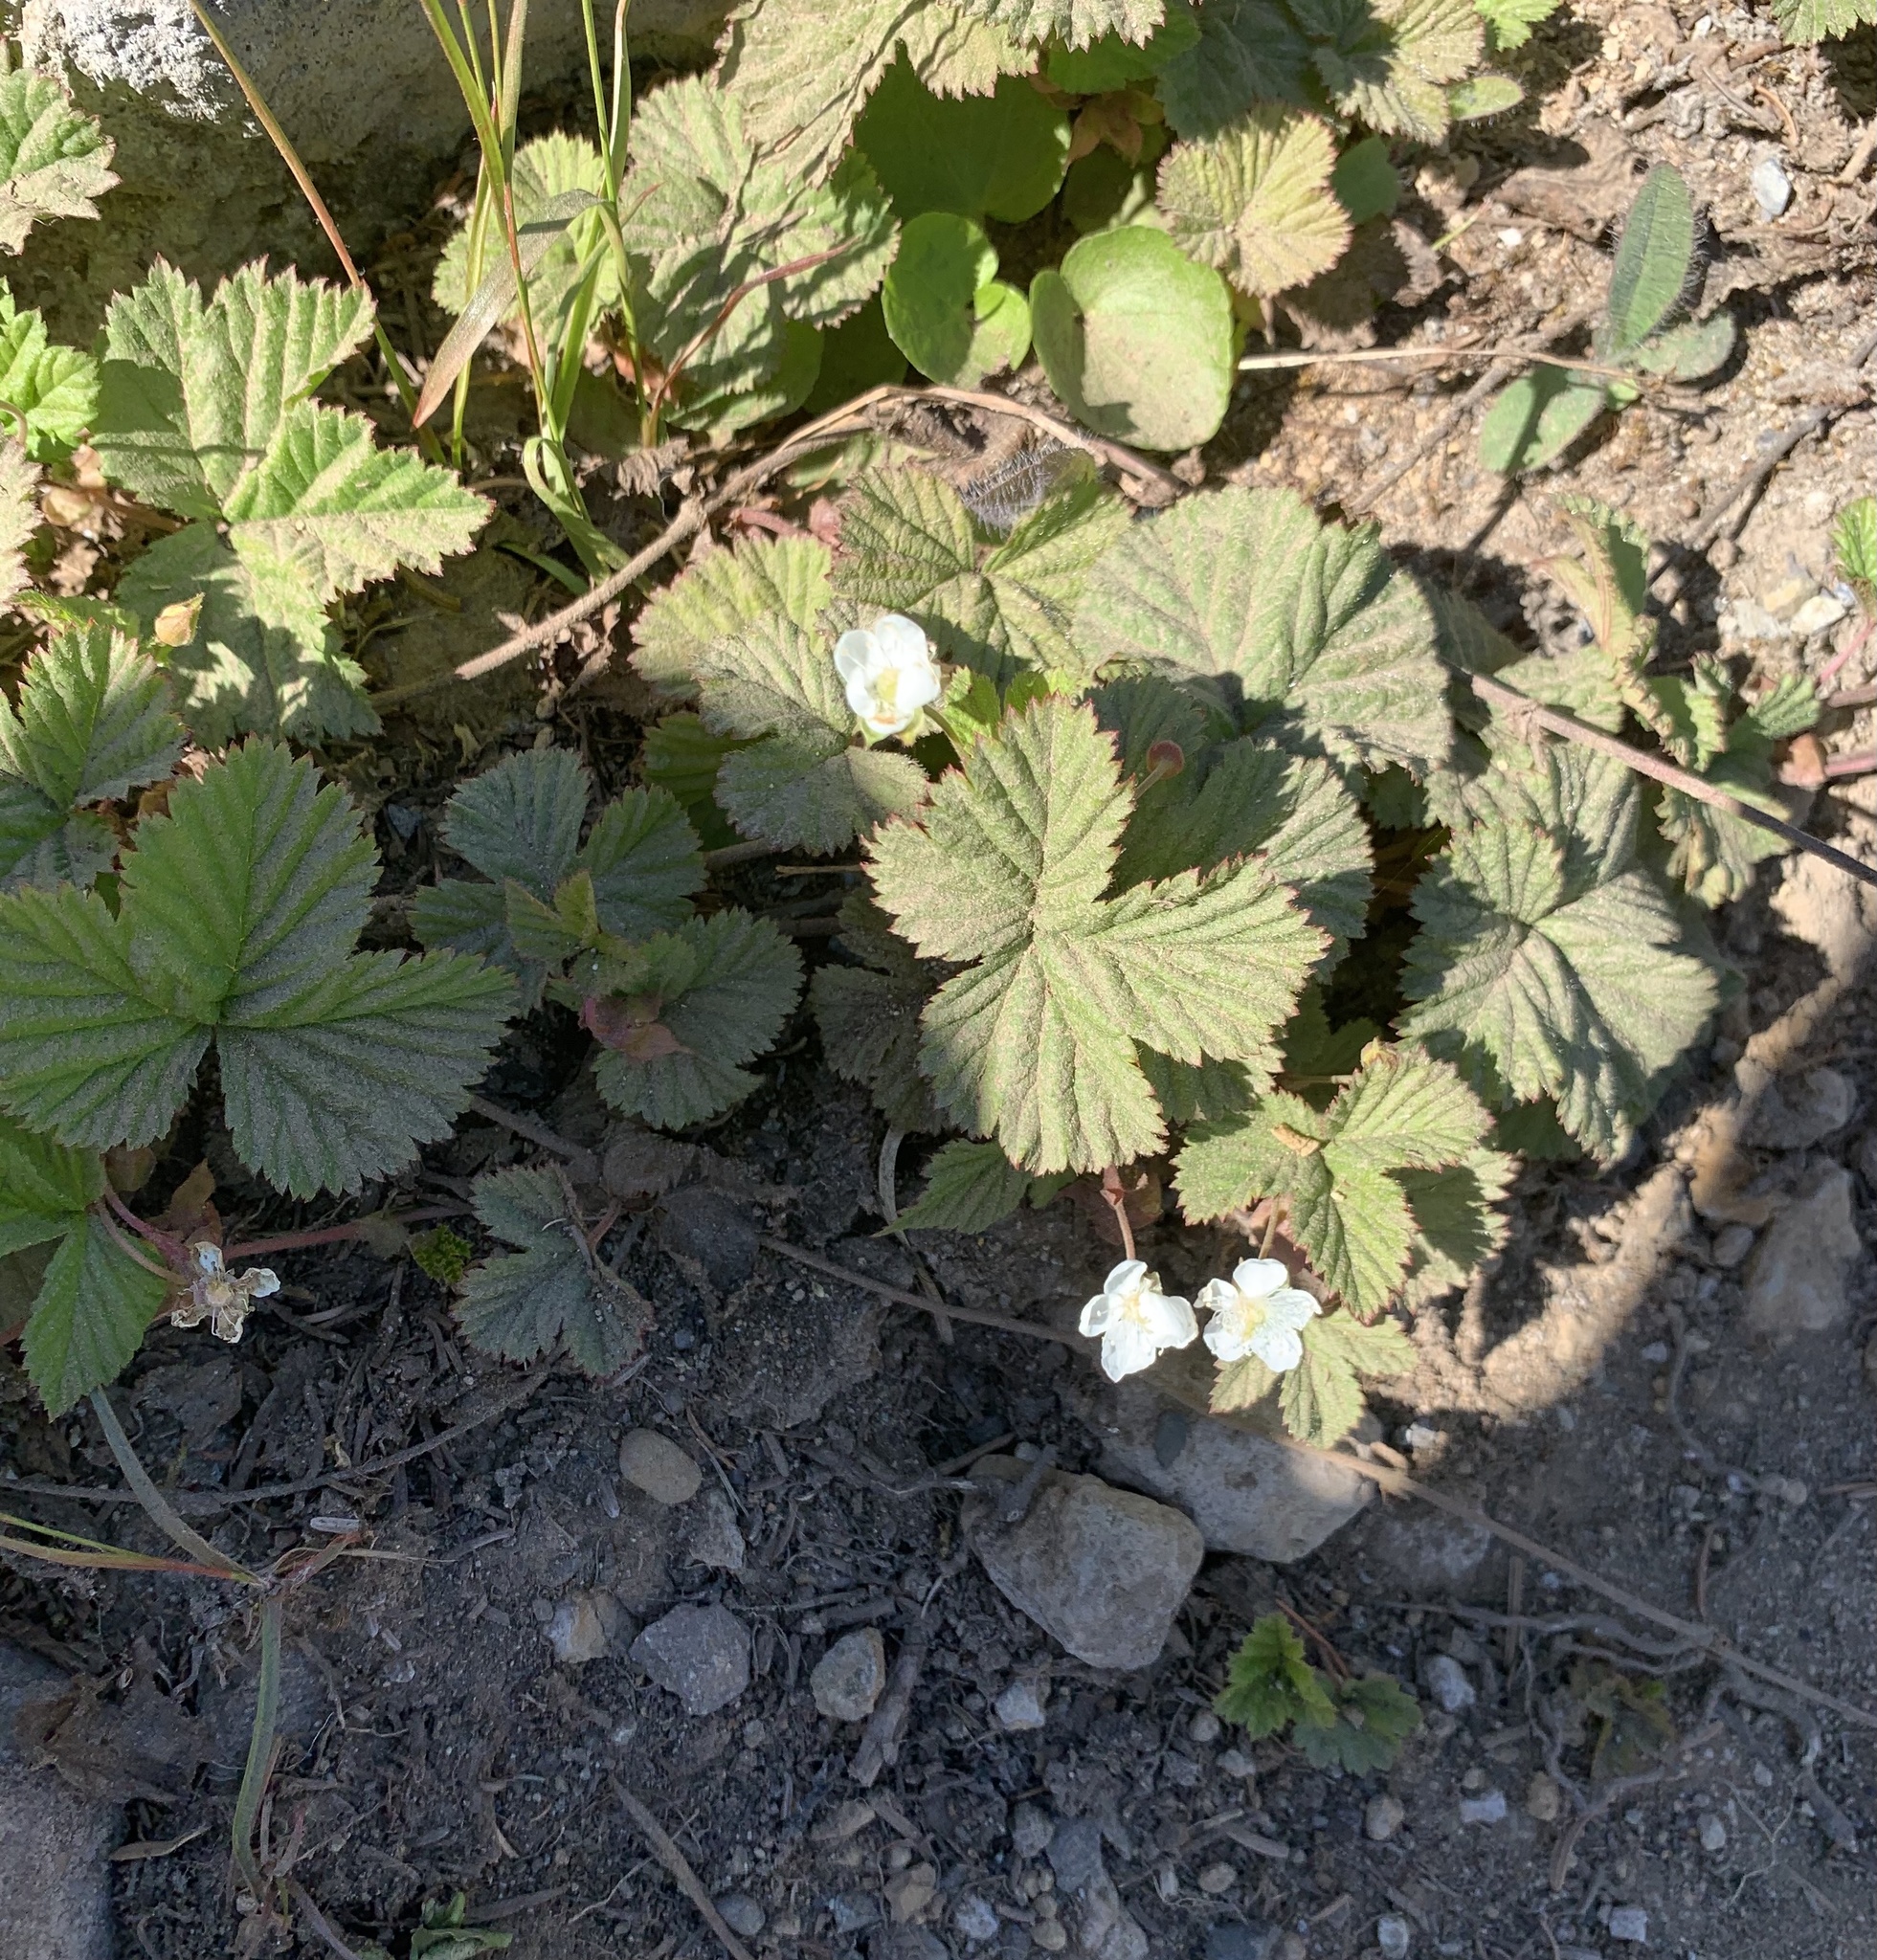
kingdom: Plantae
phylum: Tracheophyta
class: Magnoliopsida
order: Rosales
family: Rosaceae
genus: Rubus
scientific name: Rubus lasiococcus
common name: Dwarf bramble
